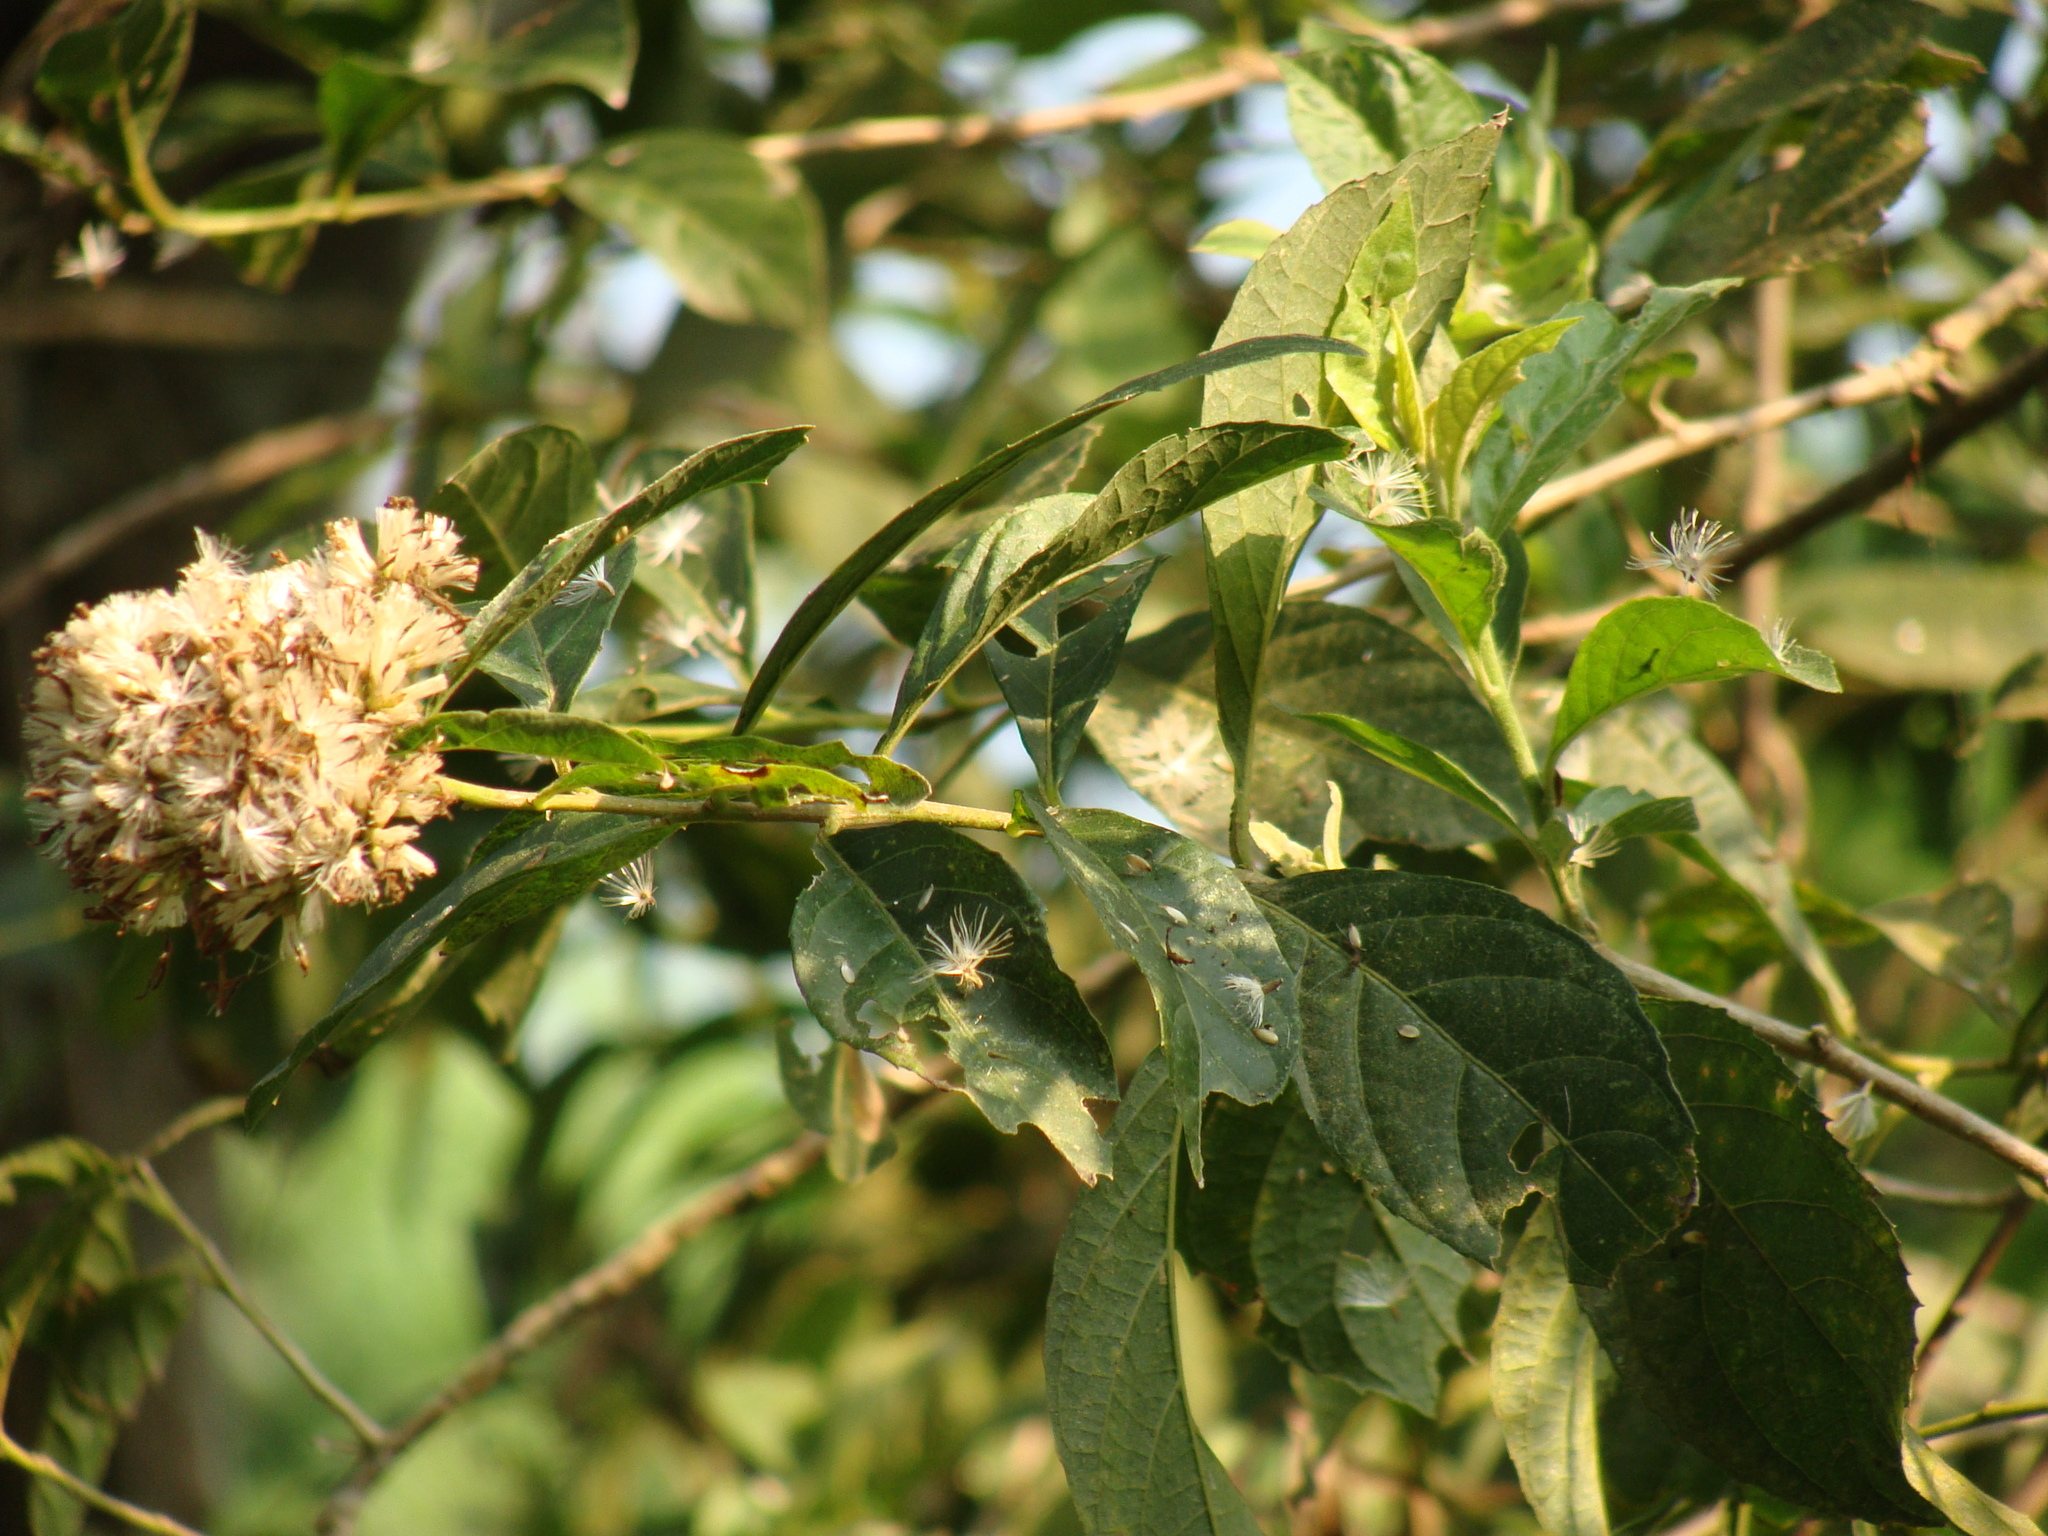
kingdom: Plantae
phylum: Tracheophyta
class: Magnoliopsida
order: Asterales
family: Asteraceae
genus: Eremosis
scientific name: Eremosis triflosculosa
